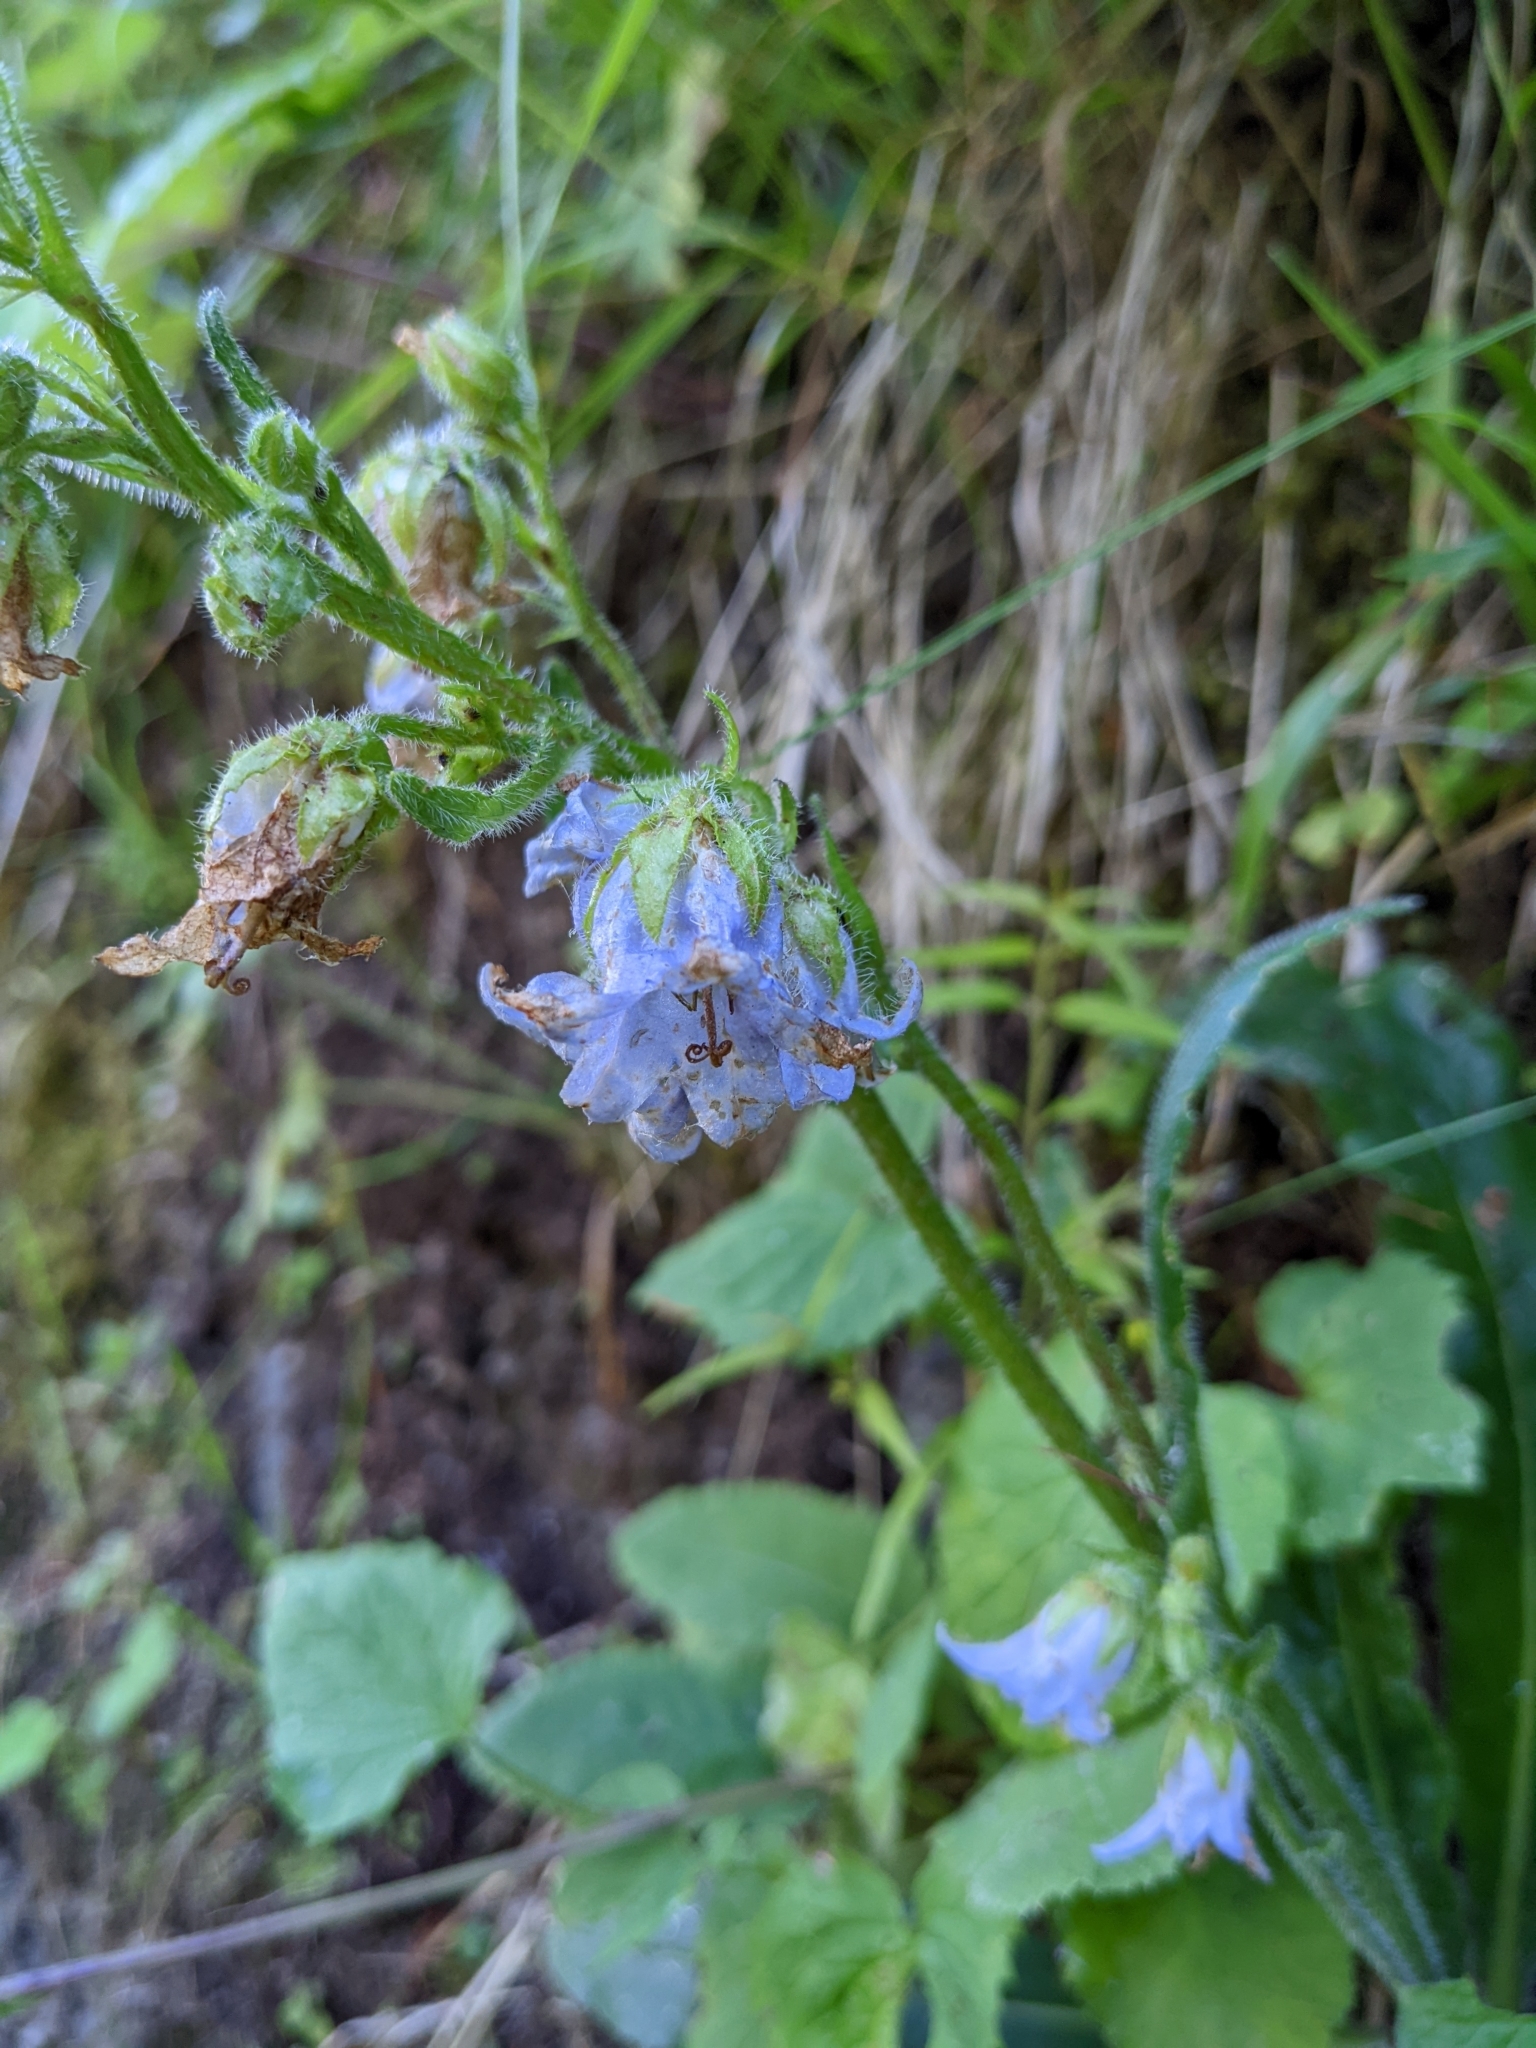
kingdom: Plantae
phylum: Tracheophyta
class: Magnoliopsida
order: Asterales
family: Campanulaceae
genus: Campanula
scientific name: Campanula barbata
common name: Bearded bellflower
